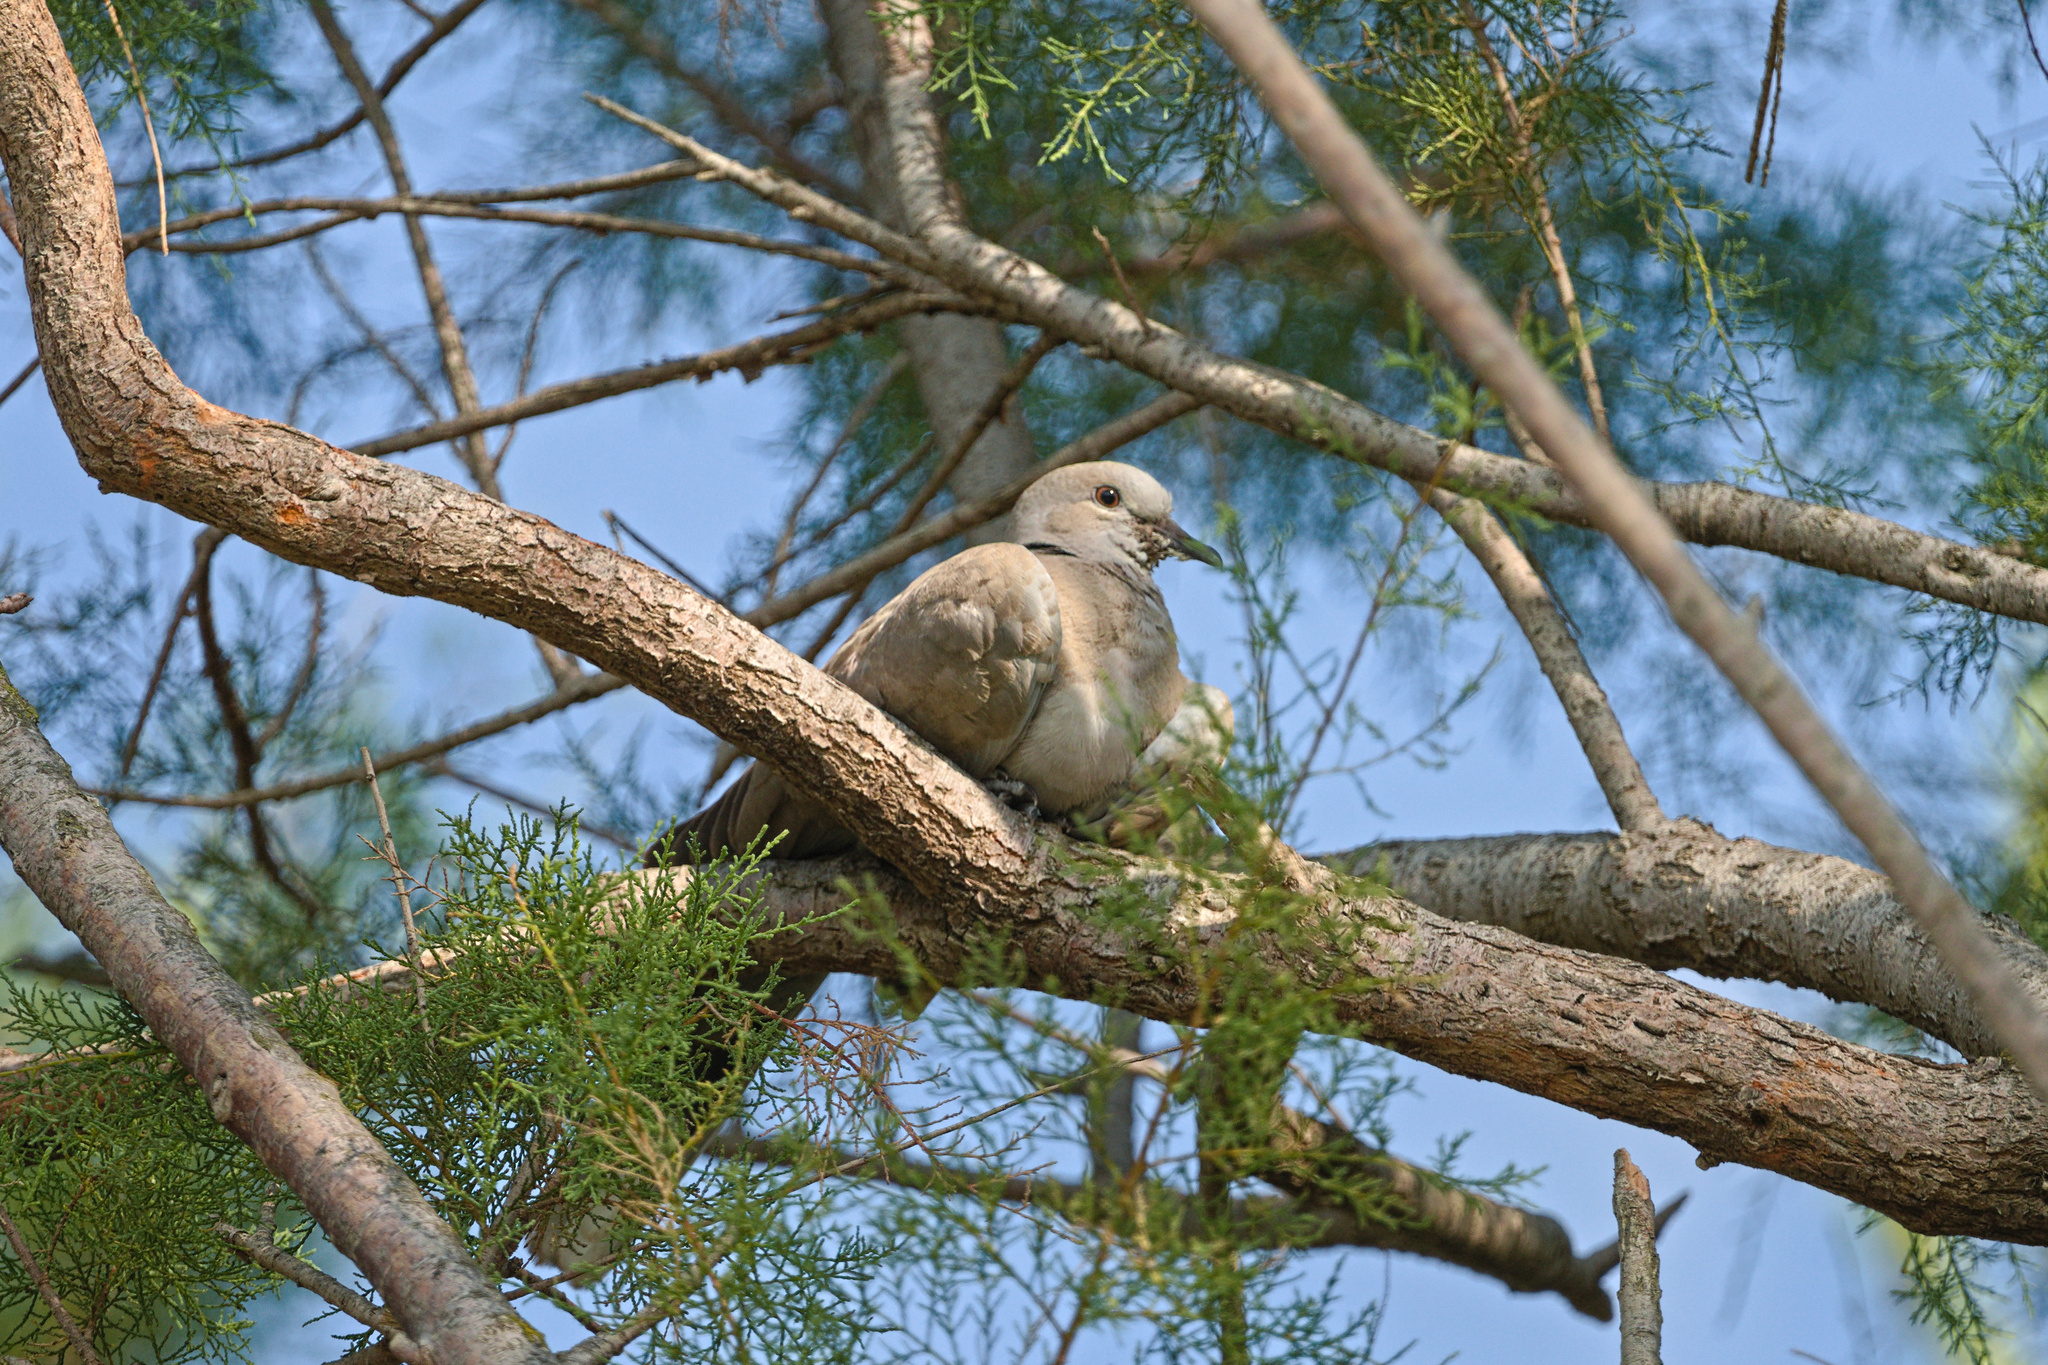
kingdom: Animalia
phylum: Chordata
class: Aves
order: Columbiformes
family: Columbidae
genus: Streptopelia
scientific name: Streptopelia decaocto
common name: Eurasian collared dove
